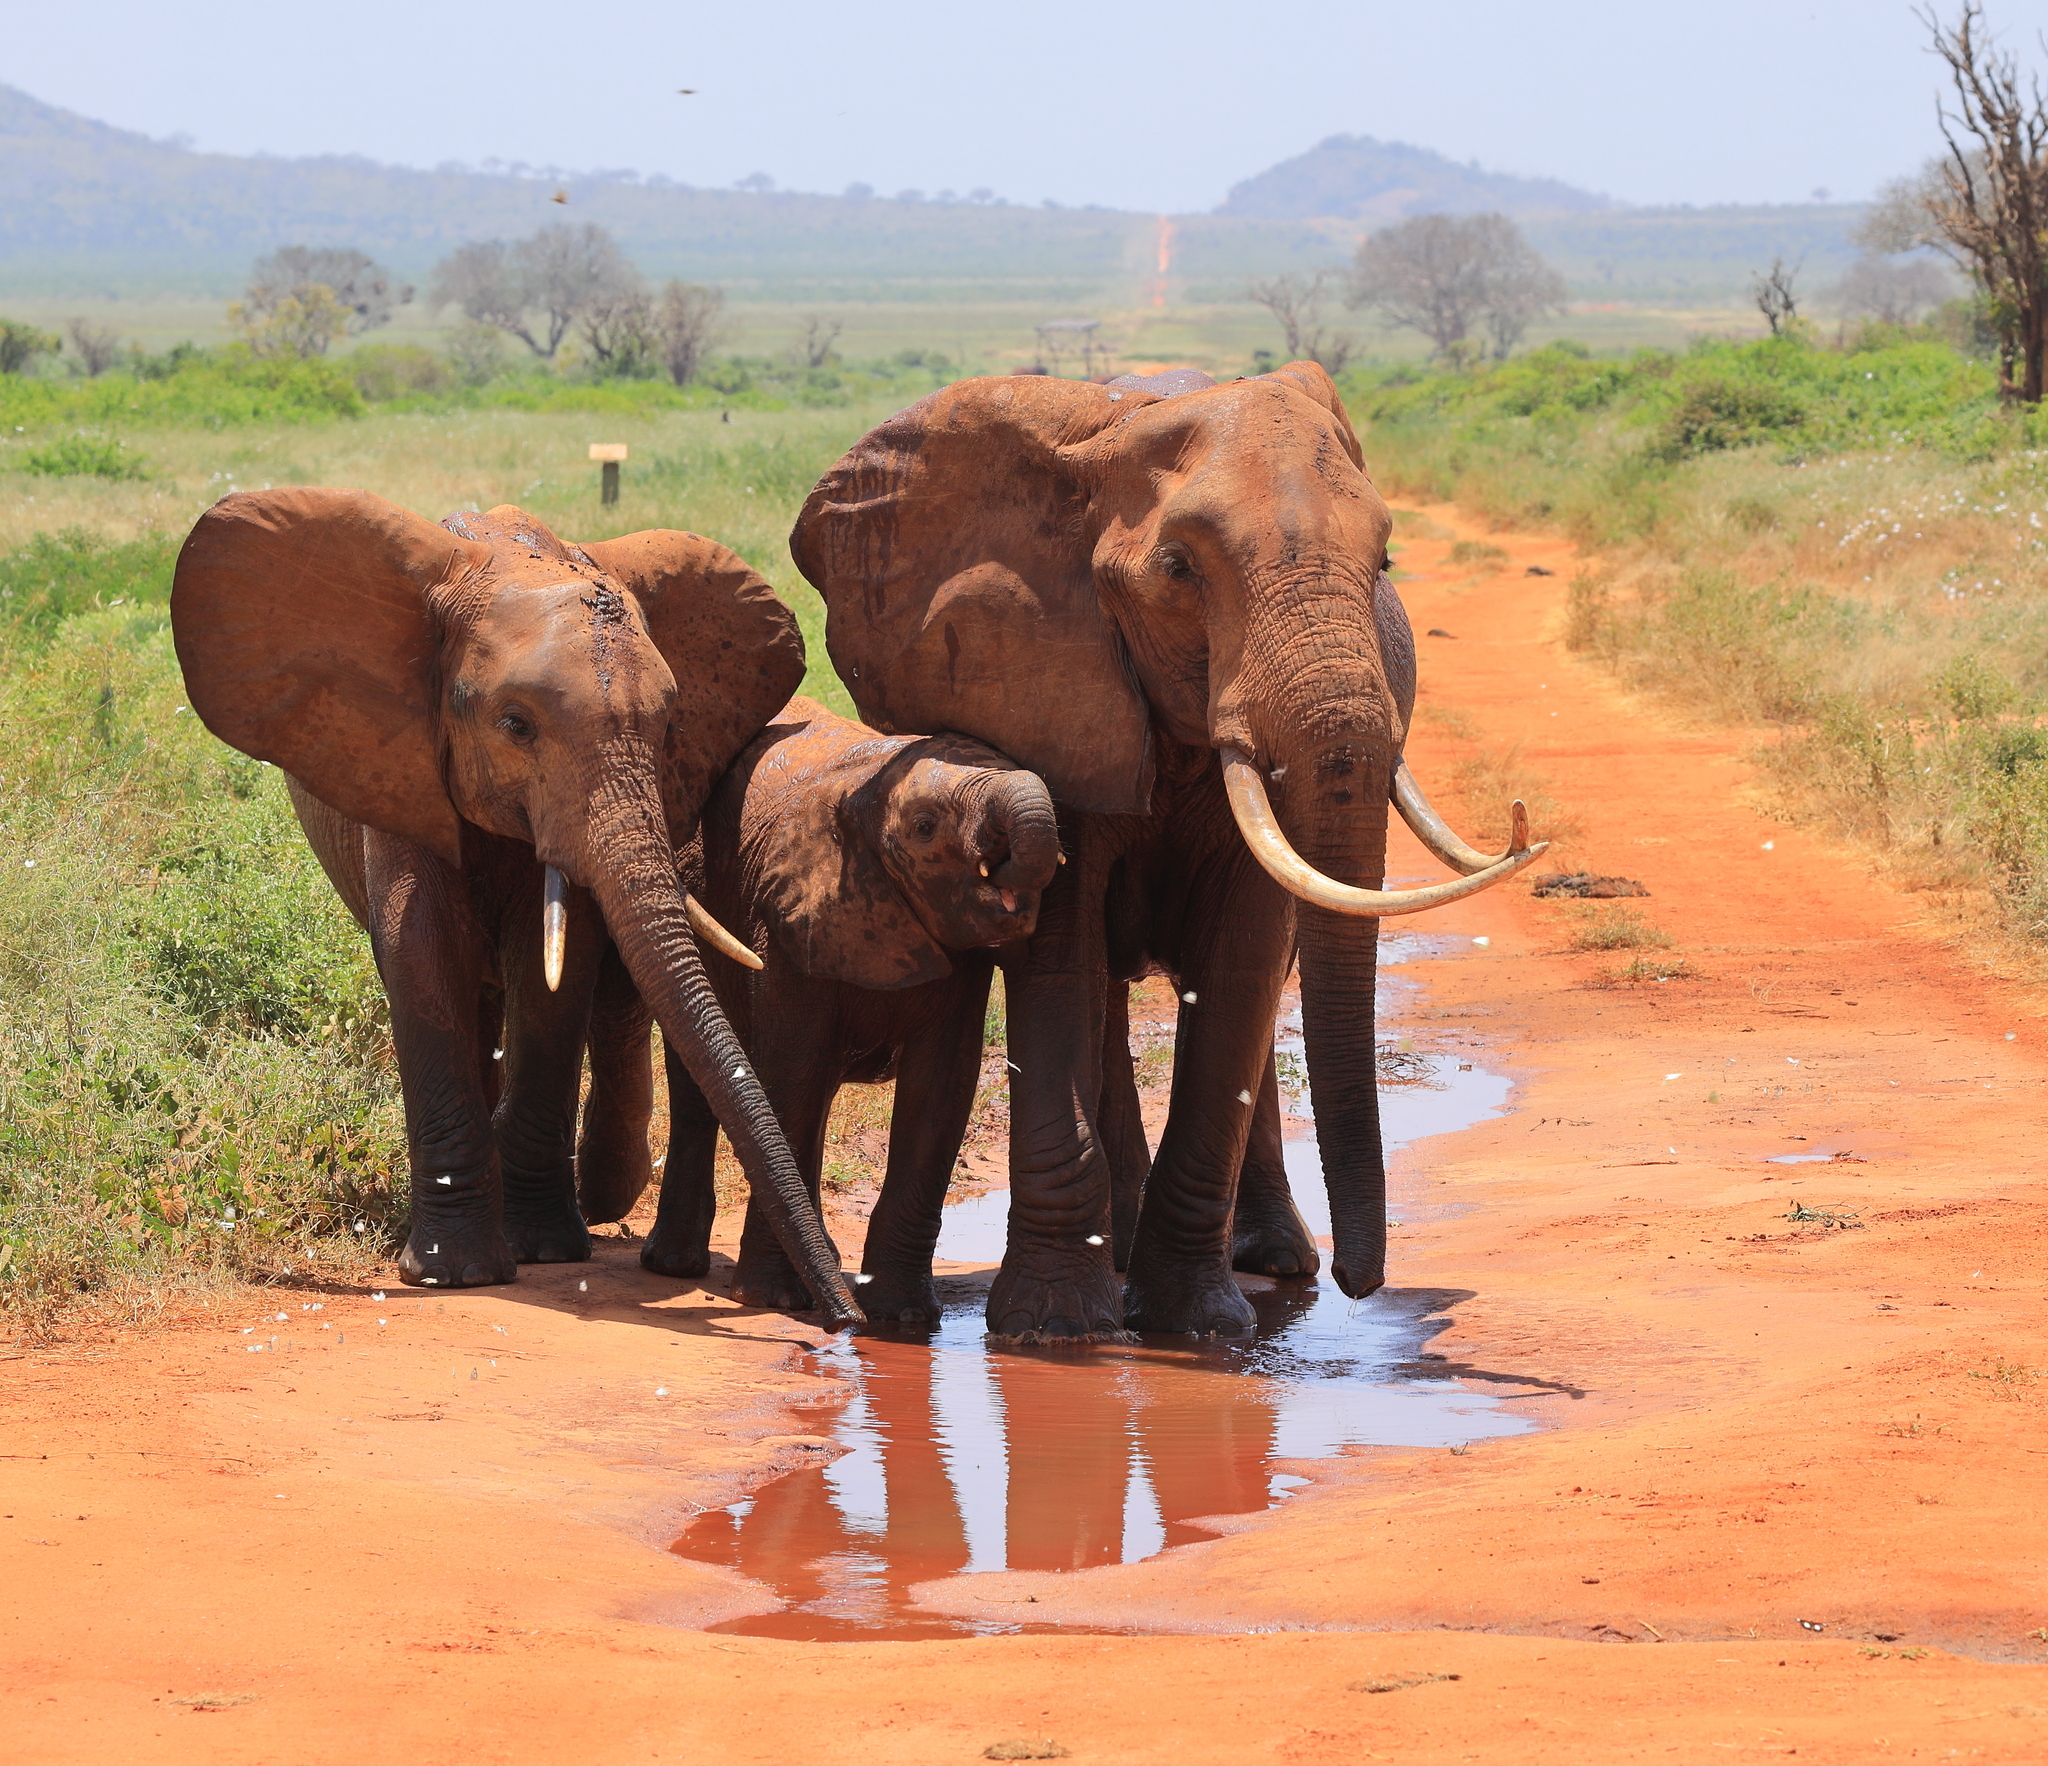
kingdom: Animalia
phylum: Chordata
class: Mammalia
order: Proboscidea
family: Elephantidae
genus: Loxodonta
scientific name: Loxodonta africana
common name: African elephant
